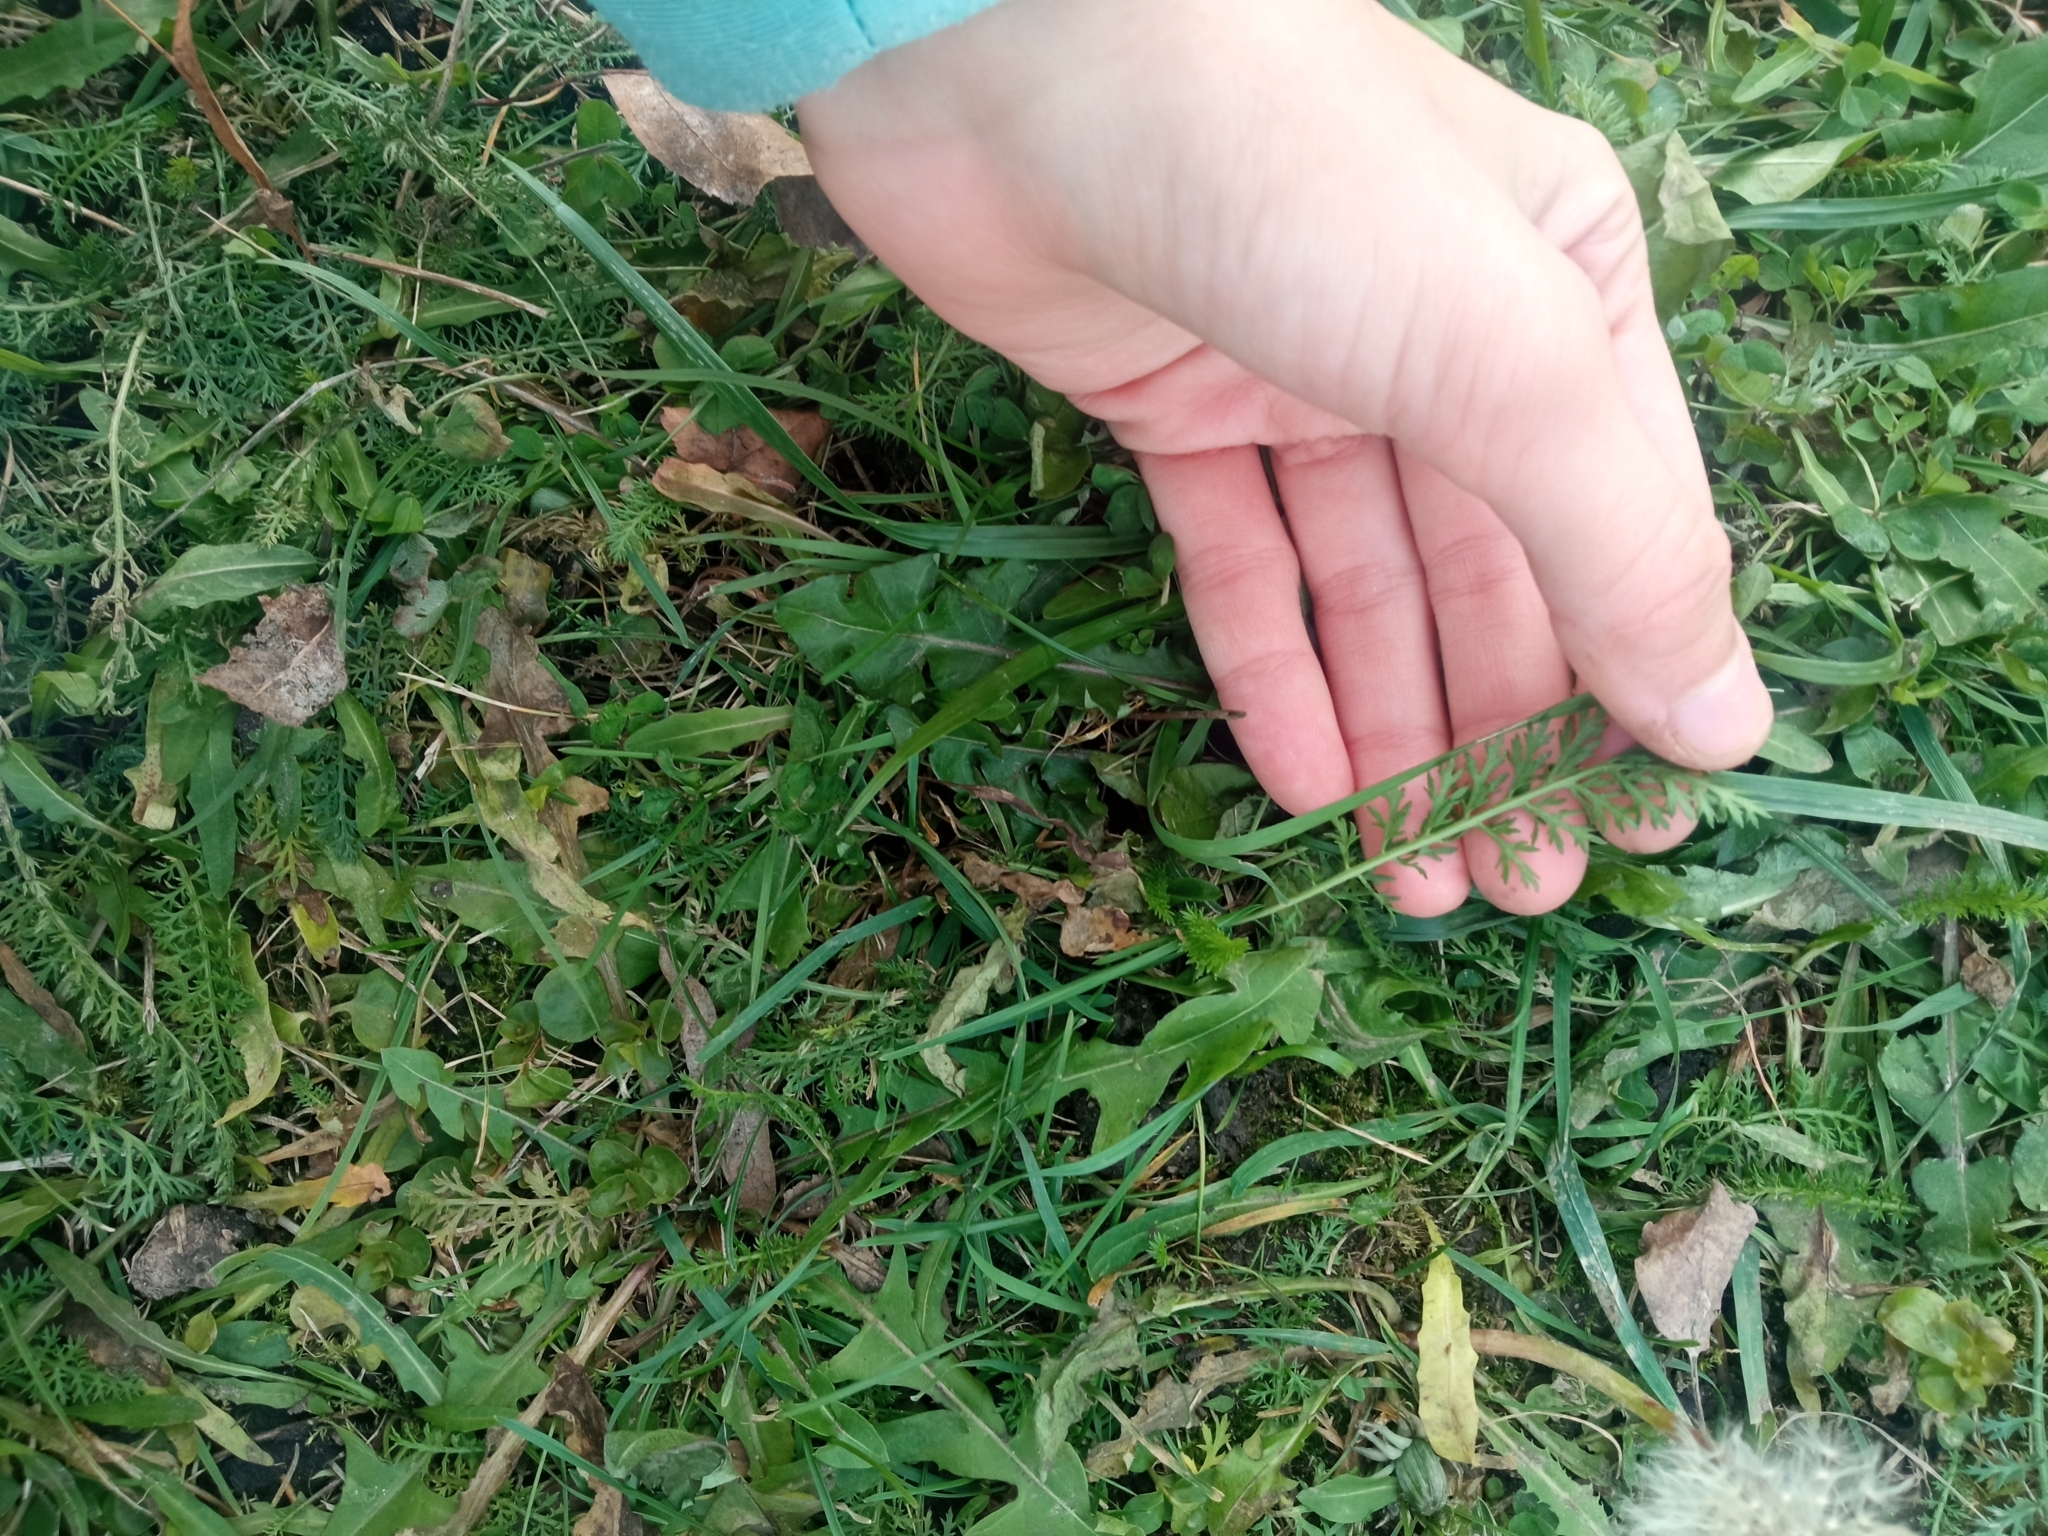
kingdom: Plantae
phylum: Tracheophyta
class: Magnoliopsida
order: Asterales
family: Asteraceae
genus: Achillea
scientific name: Achillea millefolium
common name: Yarrow
